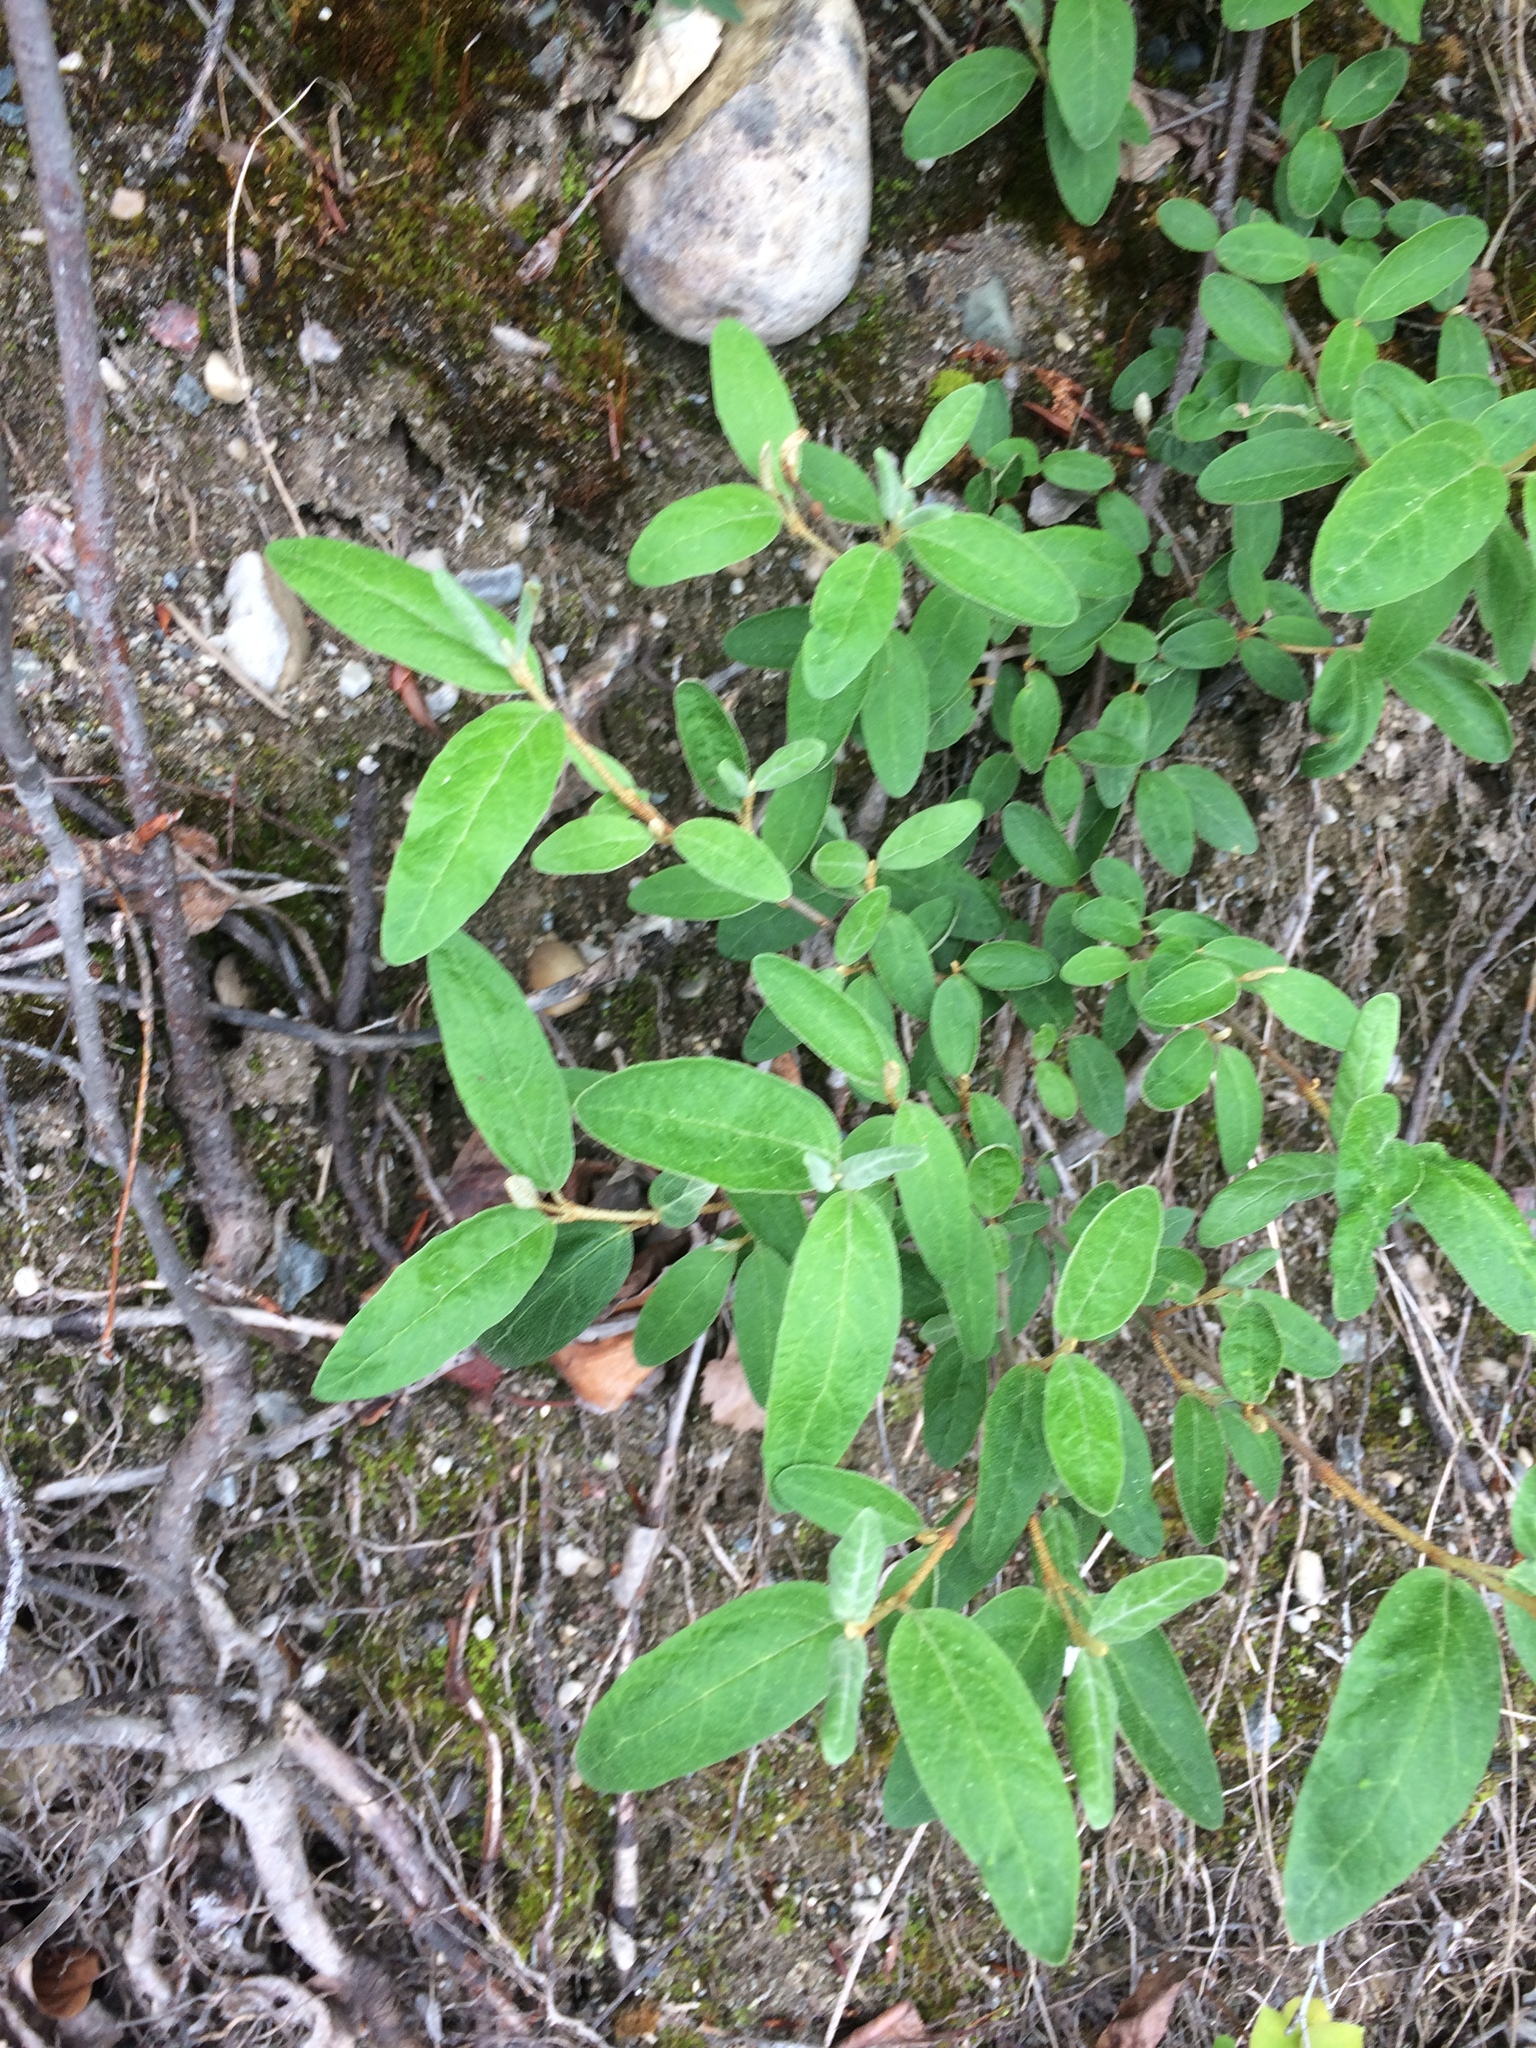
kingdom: Plantae
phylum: Tracheophyta
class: Magnoliopsida
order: Rosales
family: Elaeagnaceae
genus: Shepherdia
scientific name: Shepherdia canadensis
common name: Soapberry
